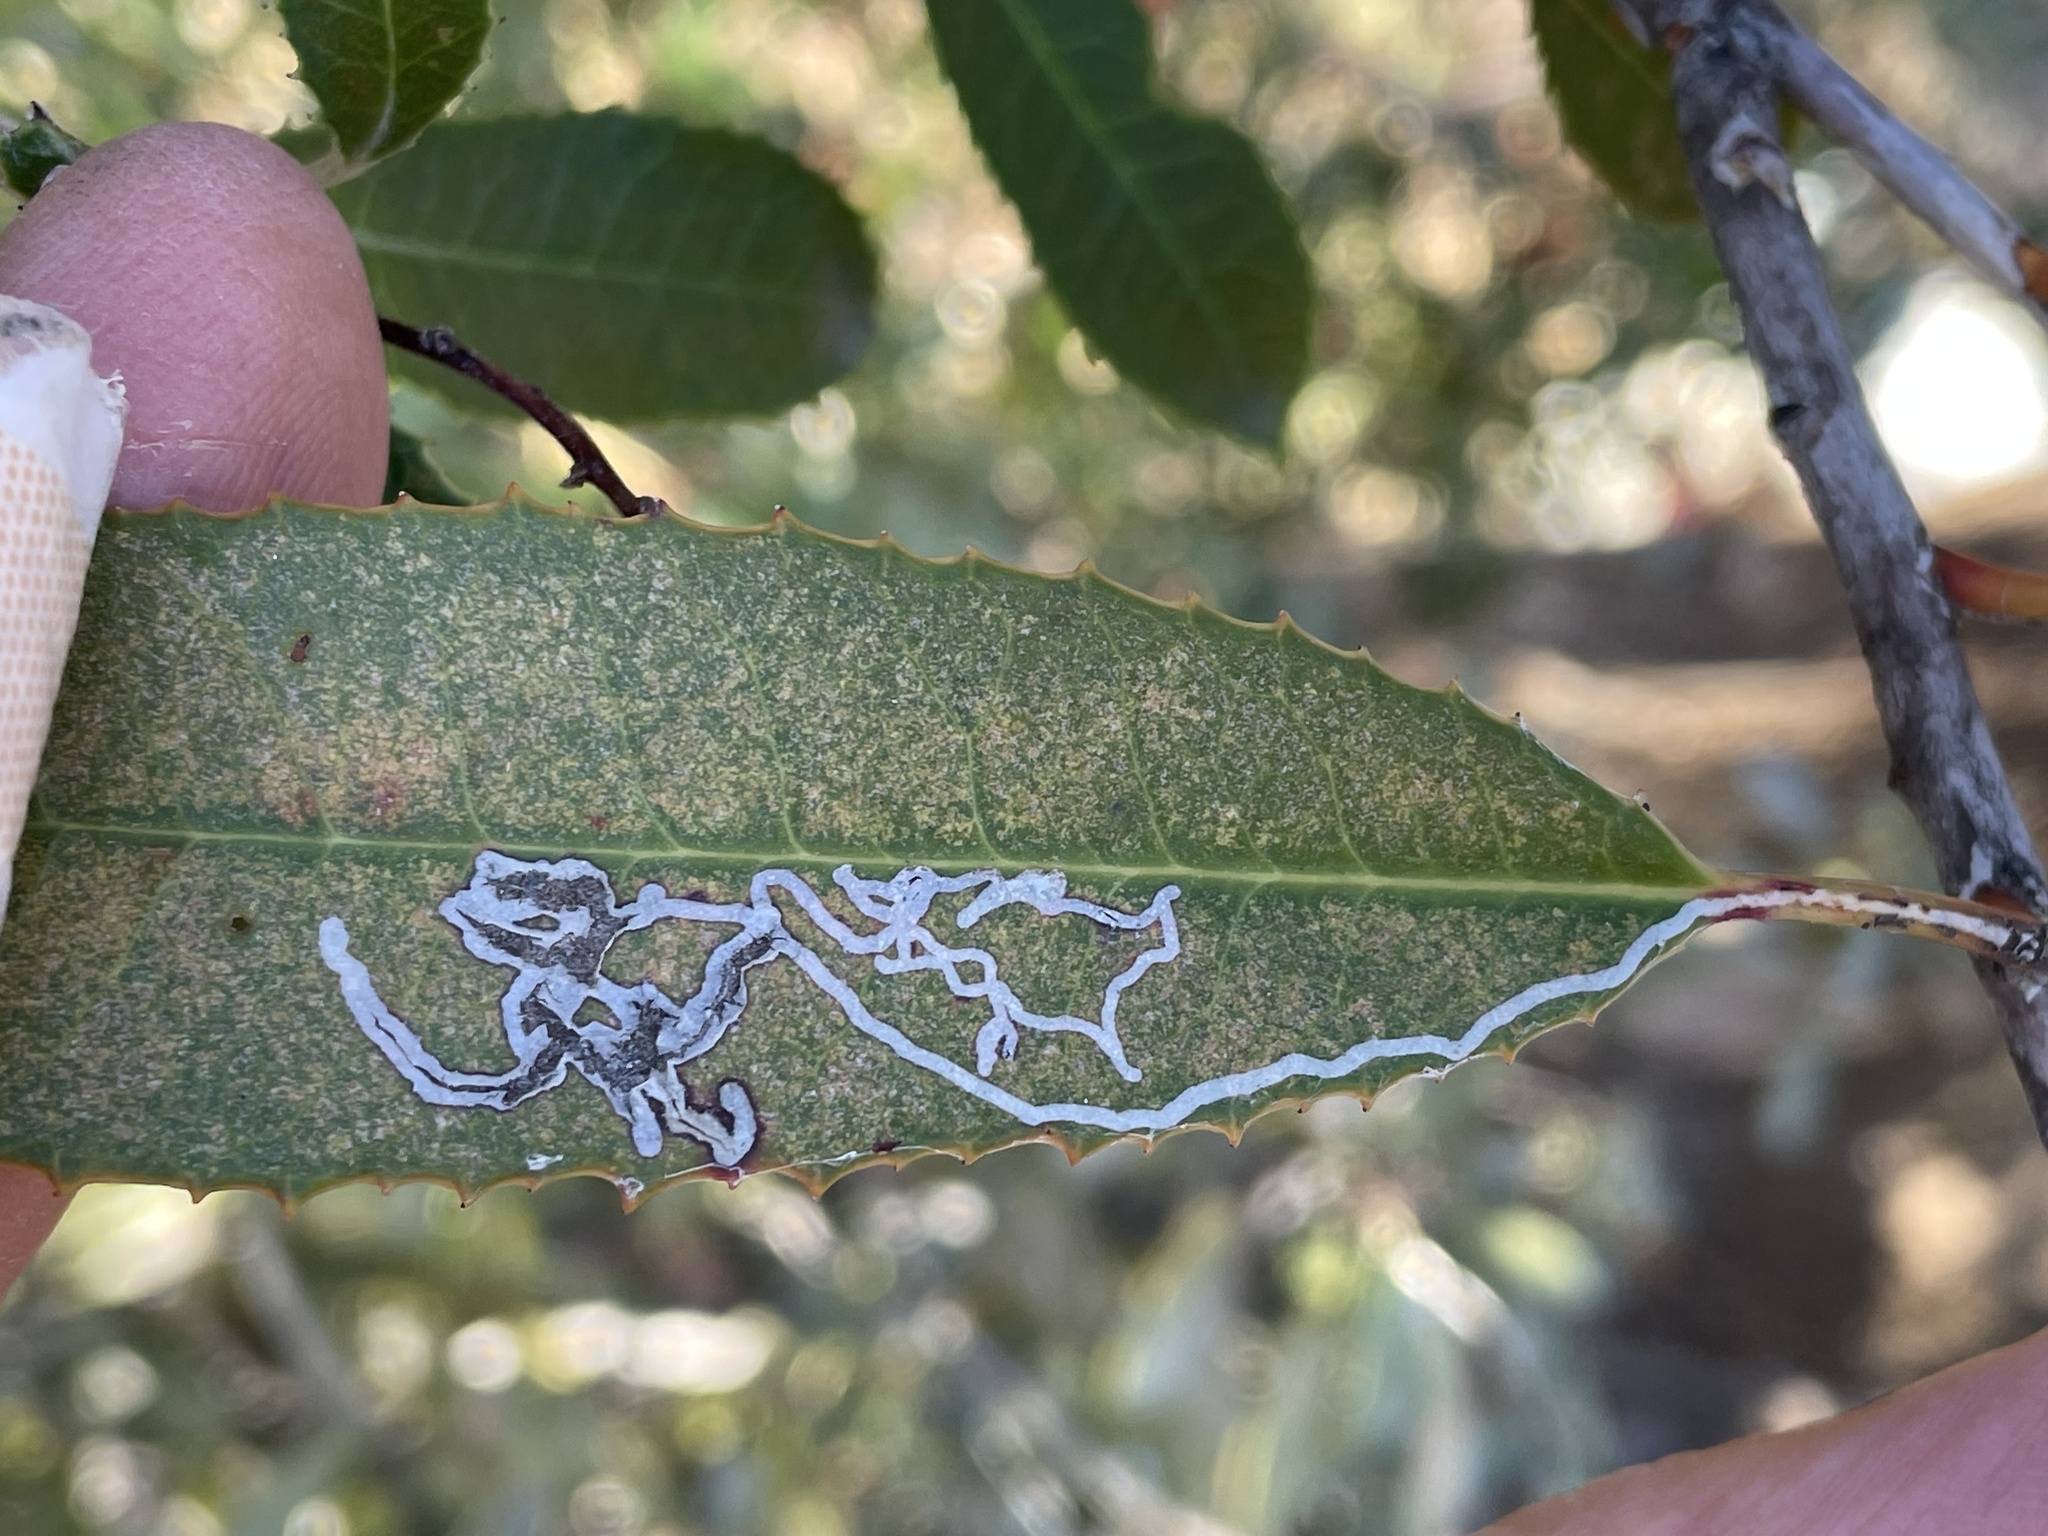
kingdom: Plantae
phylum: Tracheophyta
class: Magnoliopsida
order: Rosales
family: Rosaceae
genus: Heteromeles
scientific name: Heteromeles arbutifolia
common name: California-holly
